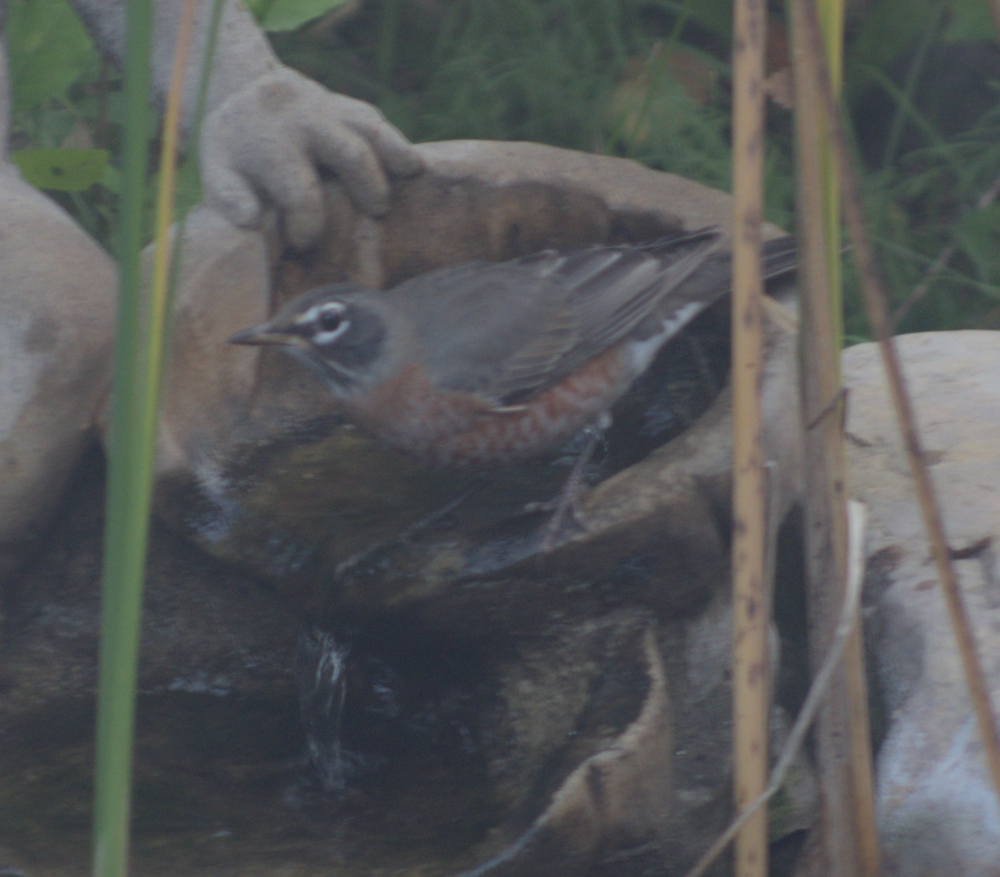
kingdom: Animalia
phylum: Chordata
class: Aves
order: Passeriformes
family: Turdidae
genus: Turdus
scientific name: Turdus migratorius
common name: American robin
